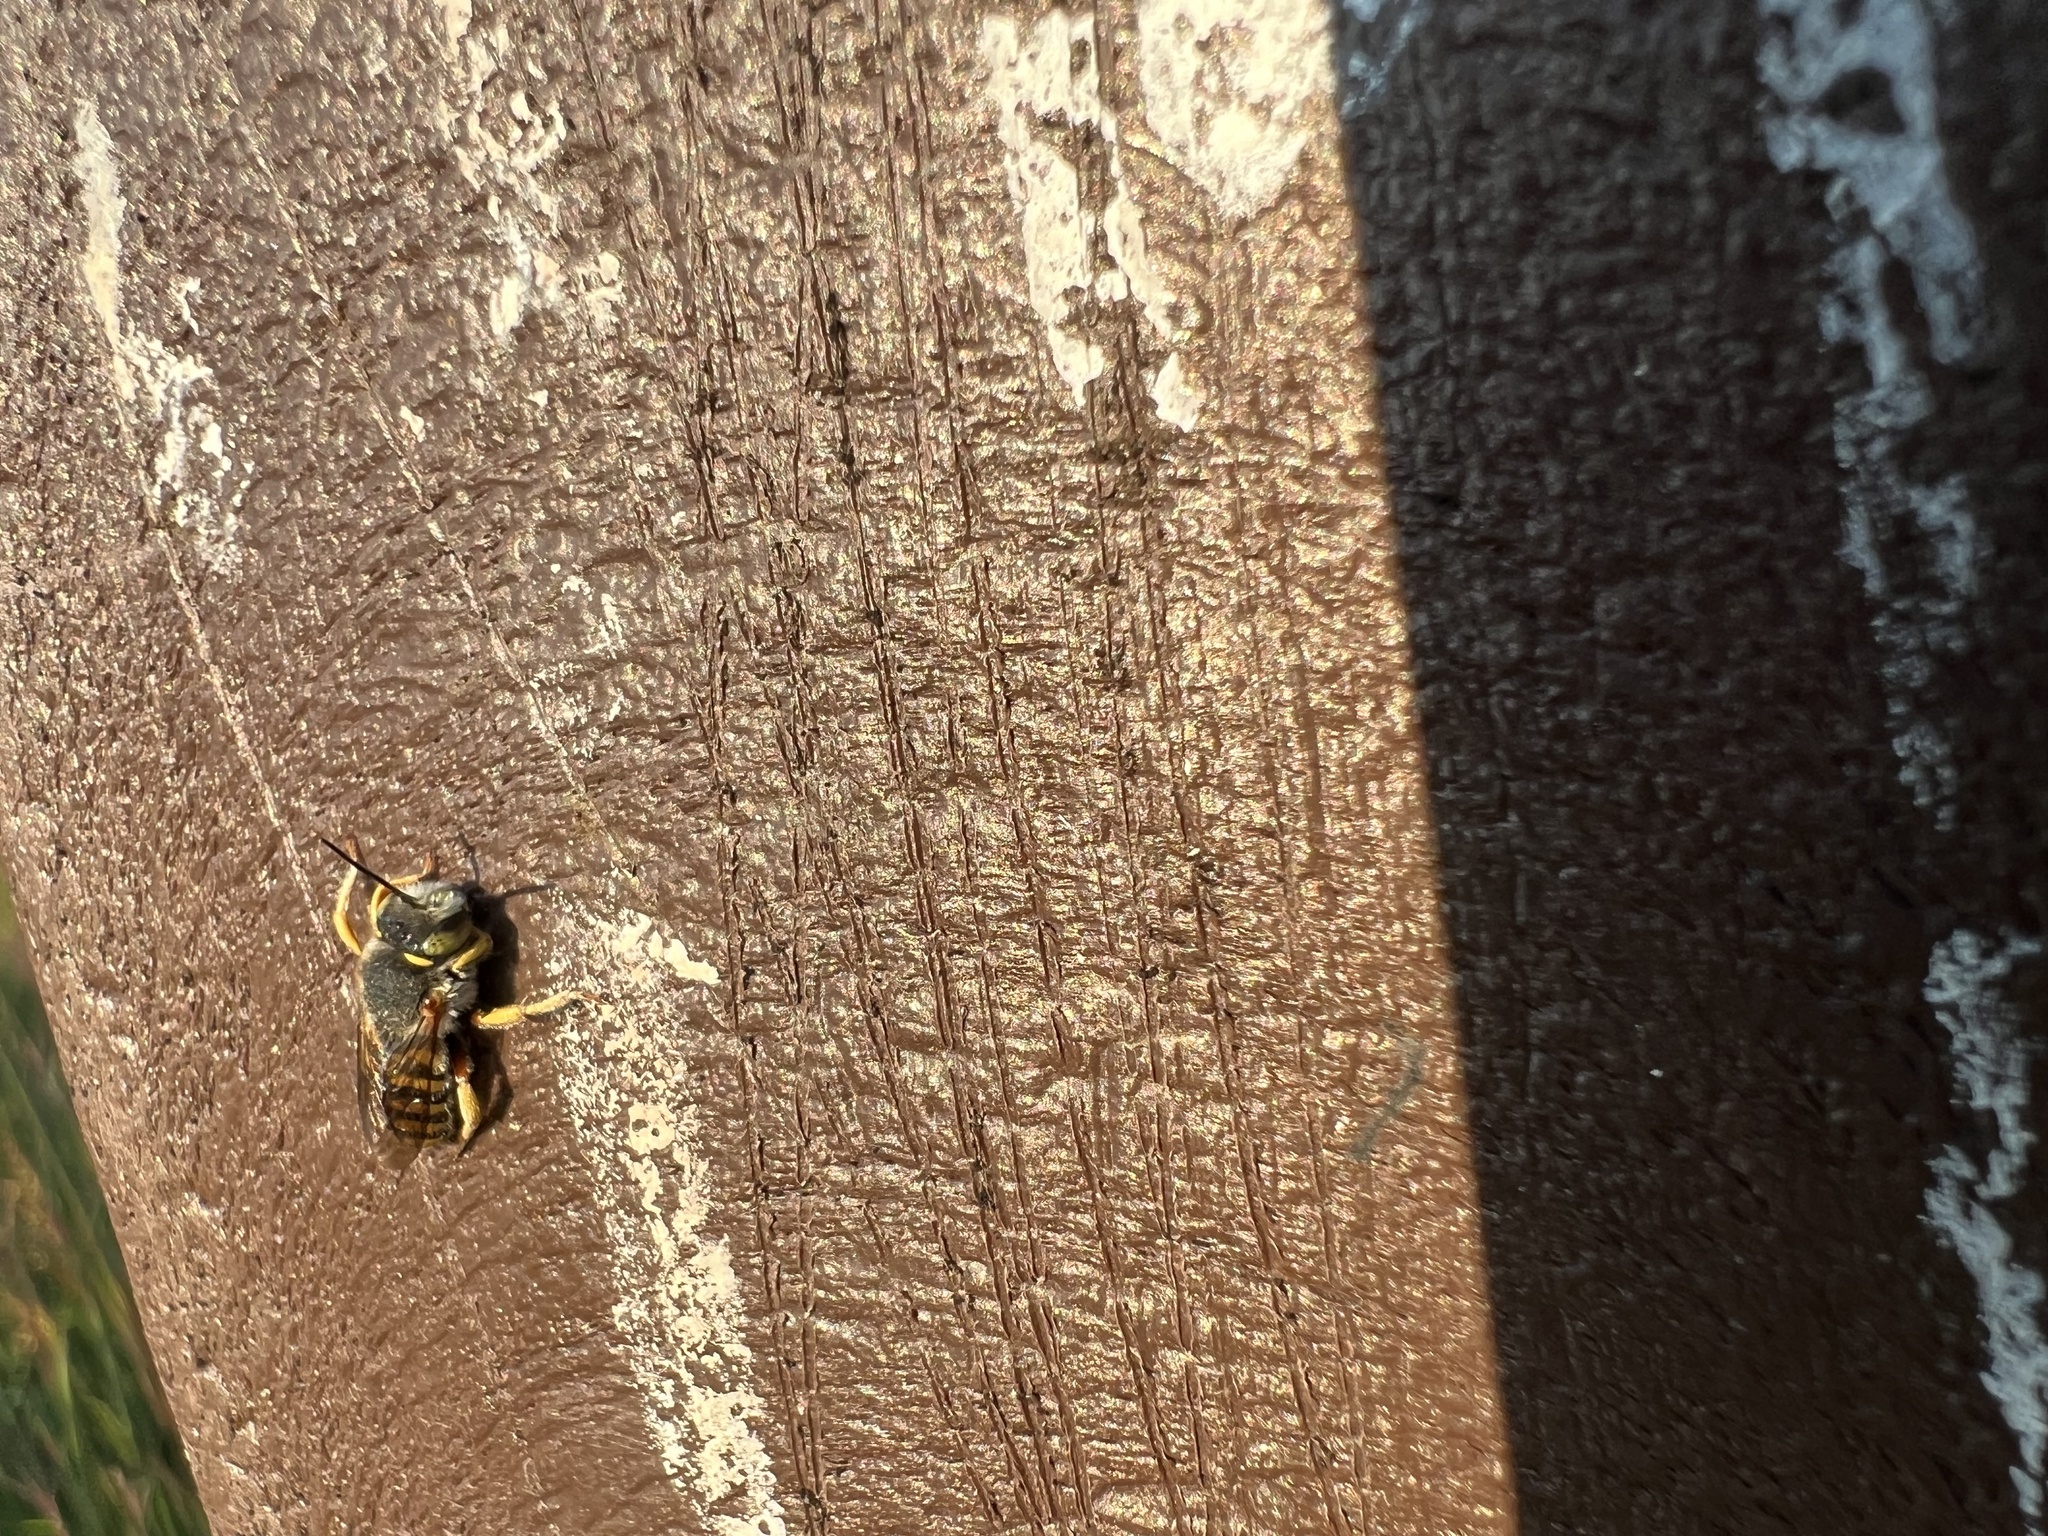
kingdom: Animalia
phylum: Arthropoda
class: Insecta
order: Hymenoptera
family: Megachilidae
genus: Anthidium
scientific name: Anthidium oblongatum
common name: Oblong wool carder bee
